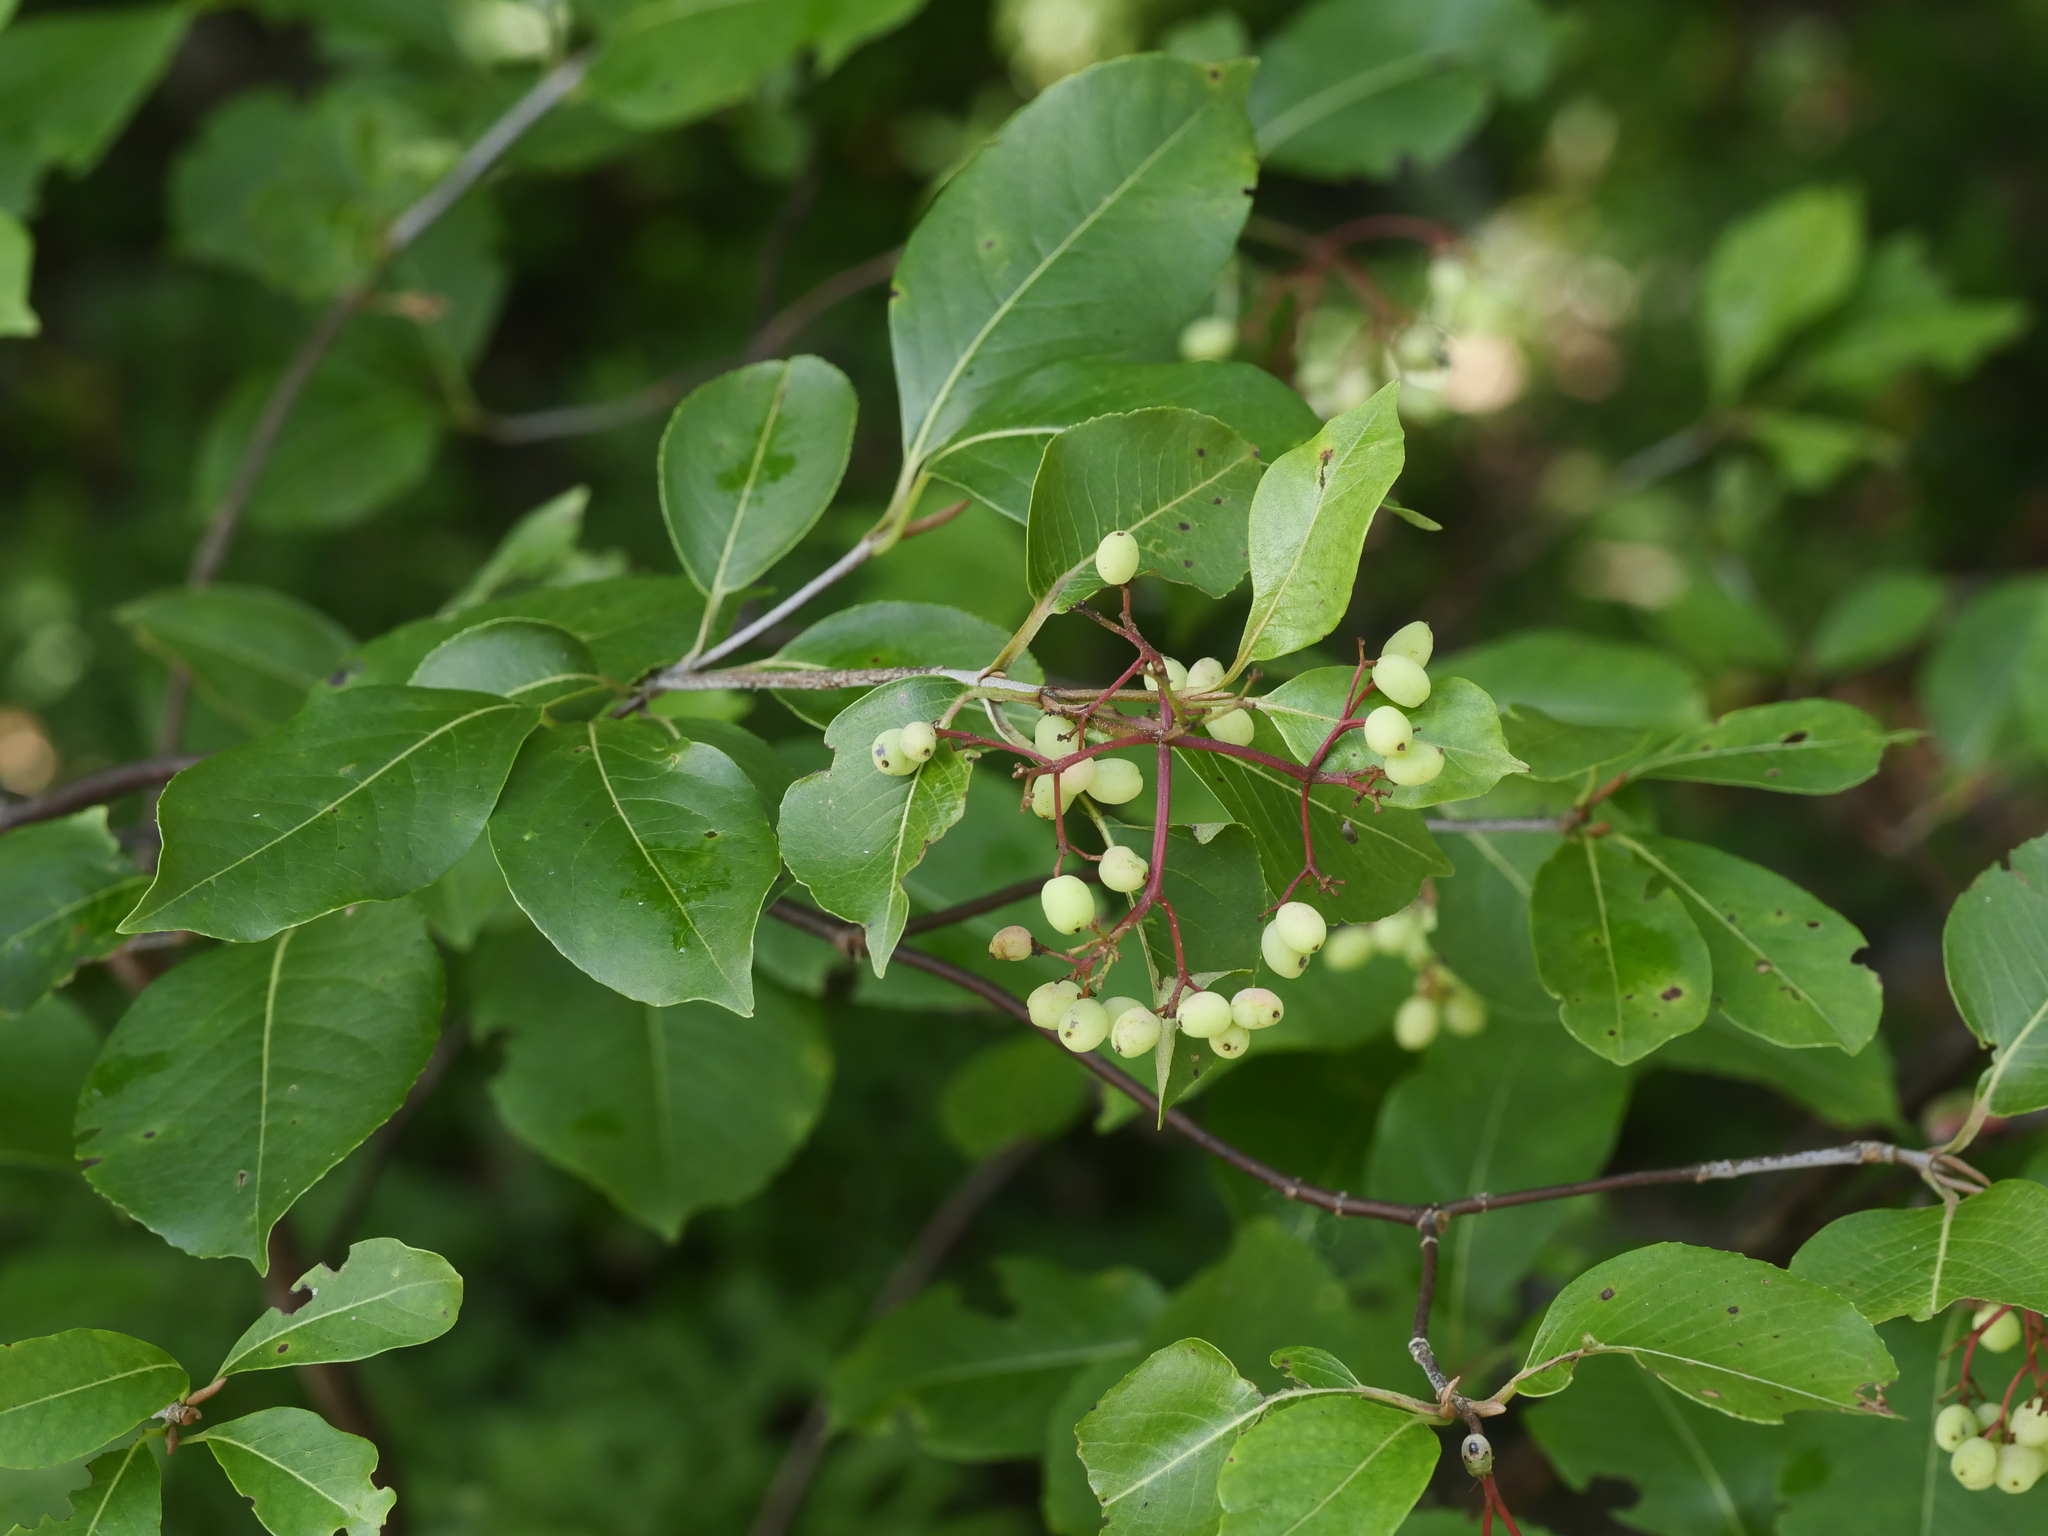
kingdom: Plantae
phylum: Tracheophyta
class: Magnoliopsida
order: Dipsacales
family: Viburnaceae
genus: Viburnum
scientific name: Viburnum cassinoides
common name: Swamp haw
